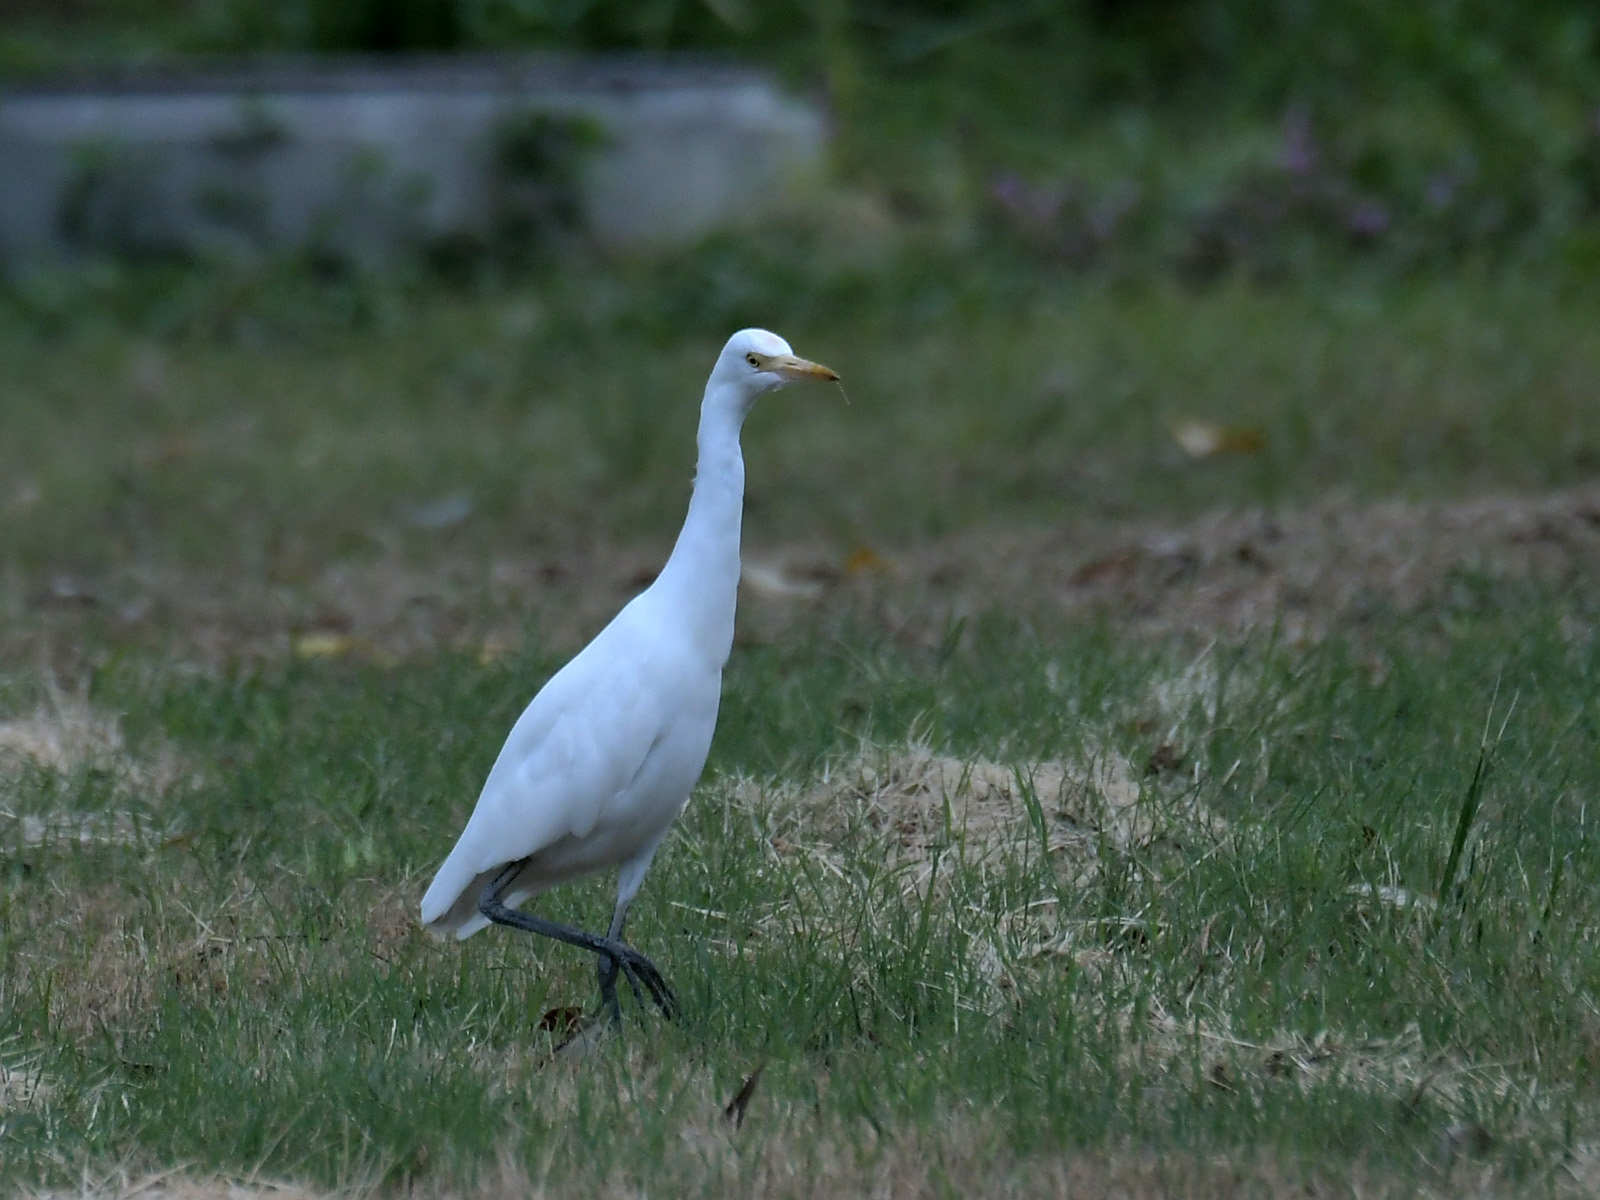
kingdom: Animalia
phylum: Chordata
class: Aves
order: Pelecaniformes
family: Ardeidae
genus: Bubulcus
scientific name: Bubulcus coromandus
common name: Eastern cattle egret
